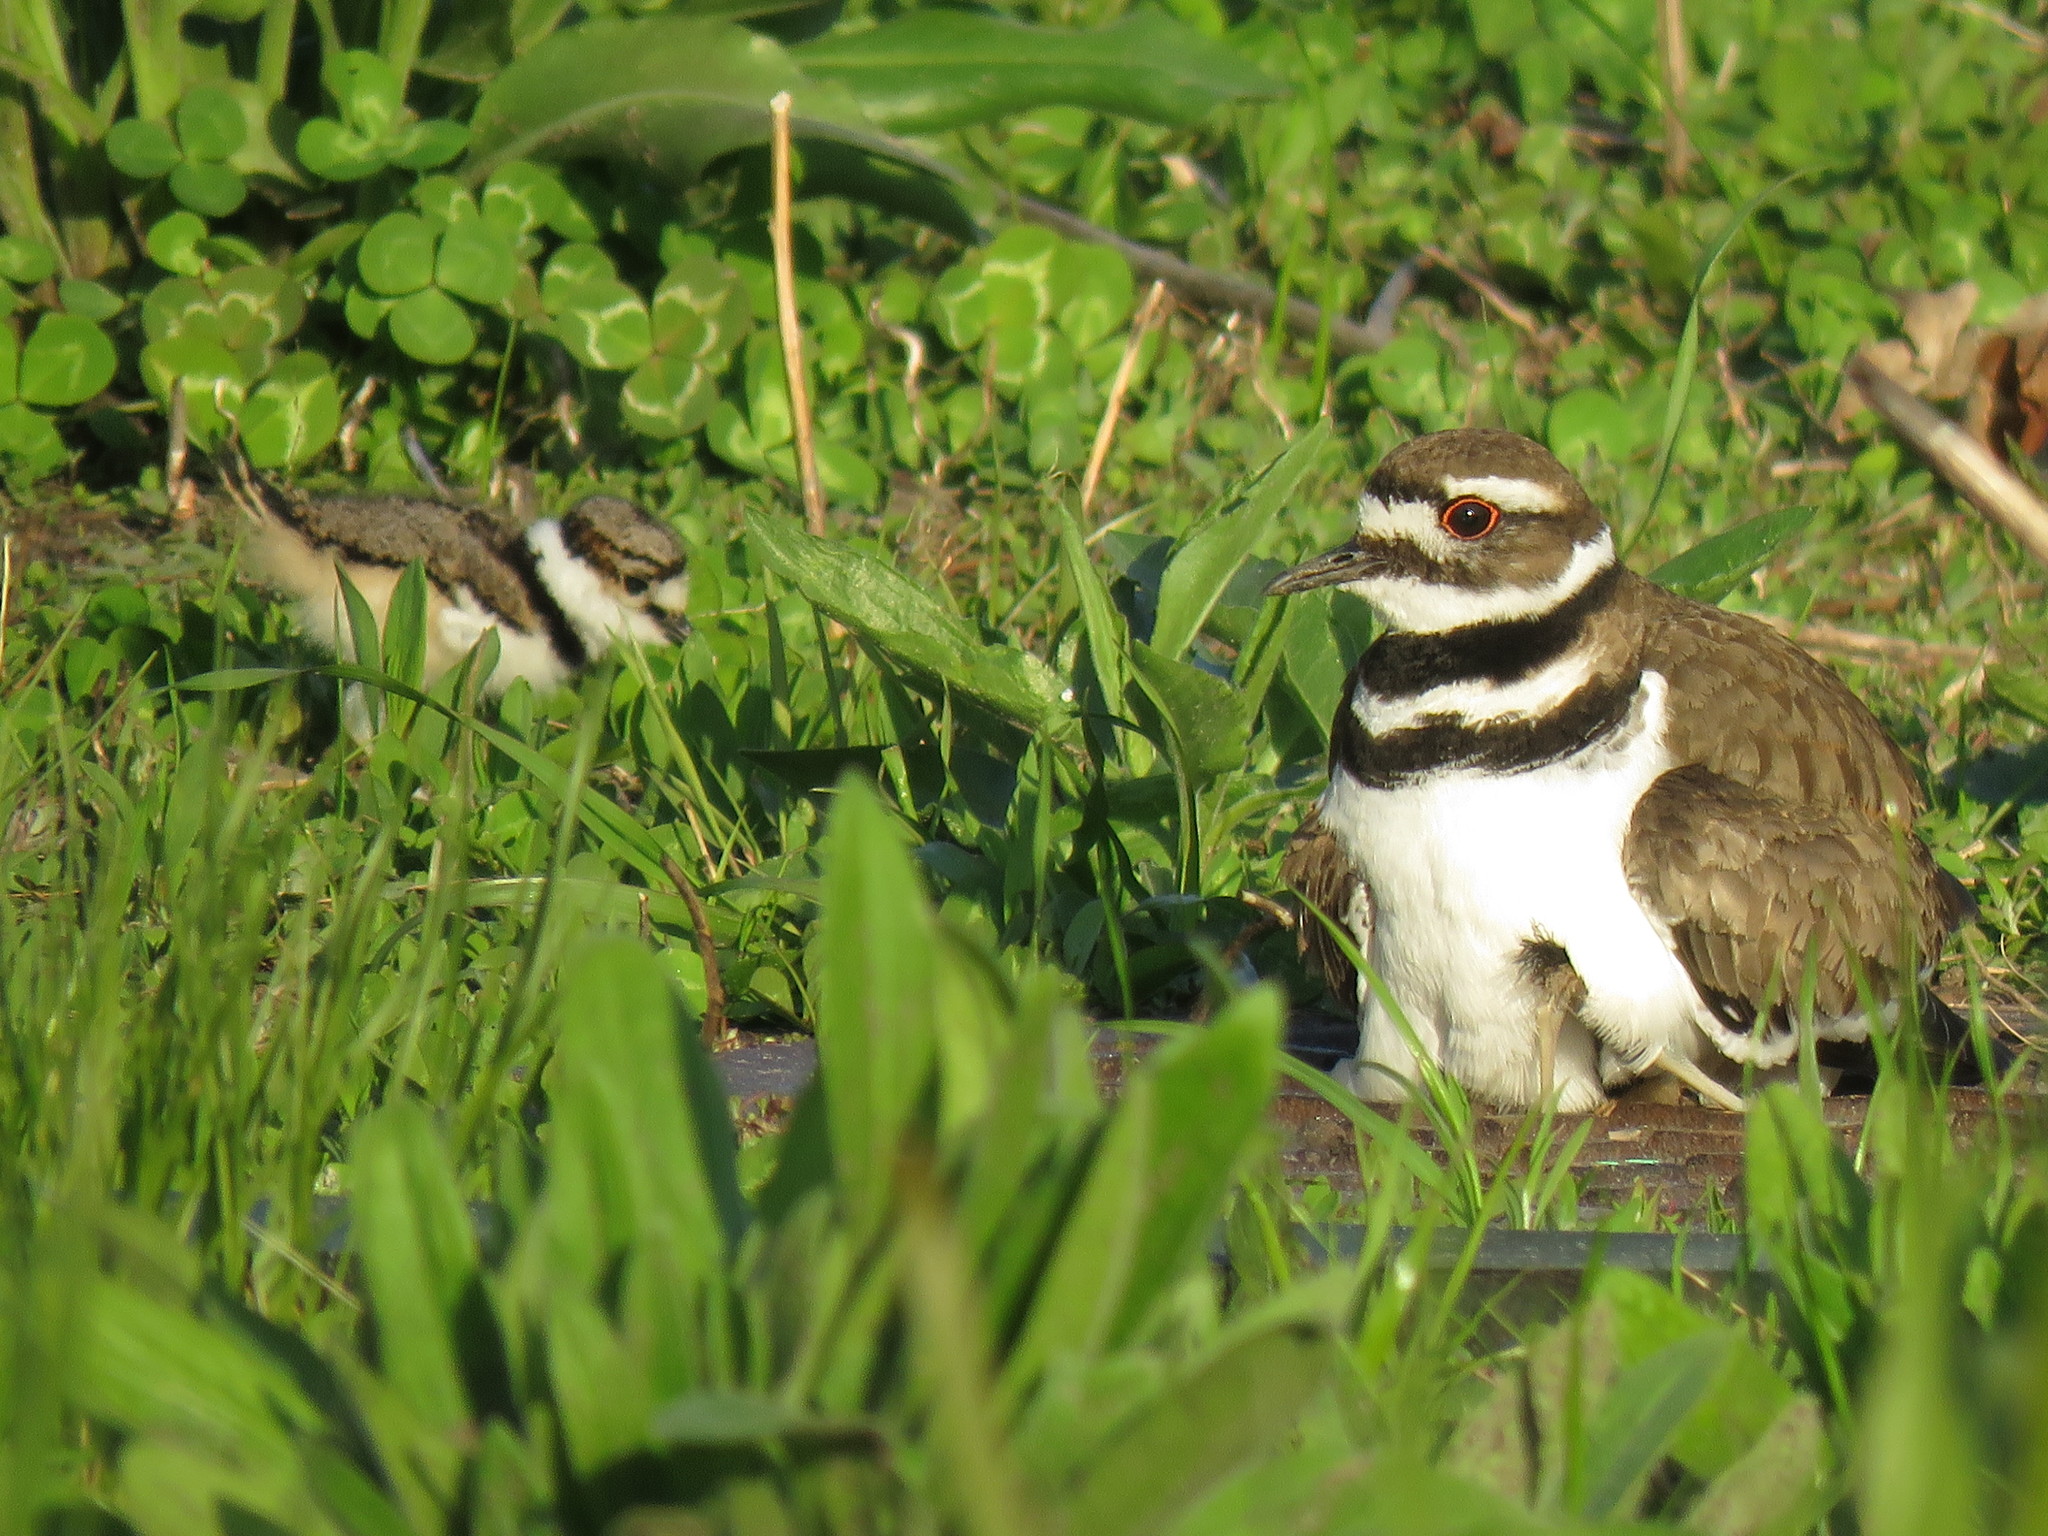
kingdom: Animalia
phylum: Chordata
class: Aves
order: Charadriiformes
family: Charadriidae
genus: Charadrius
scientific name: Charadrius vociferus
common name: Killdeer
